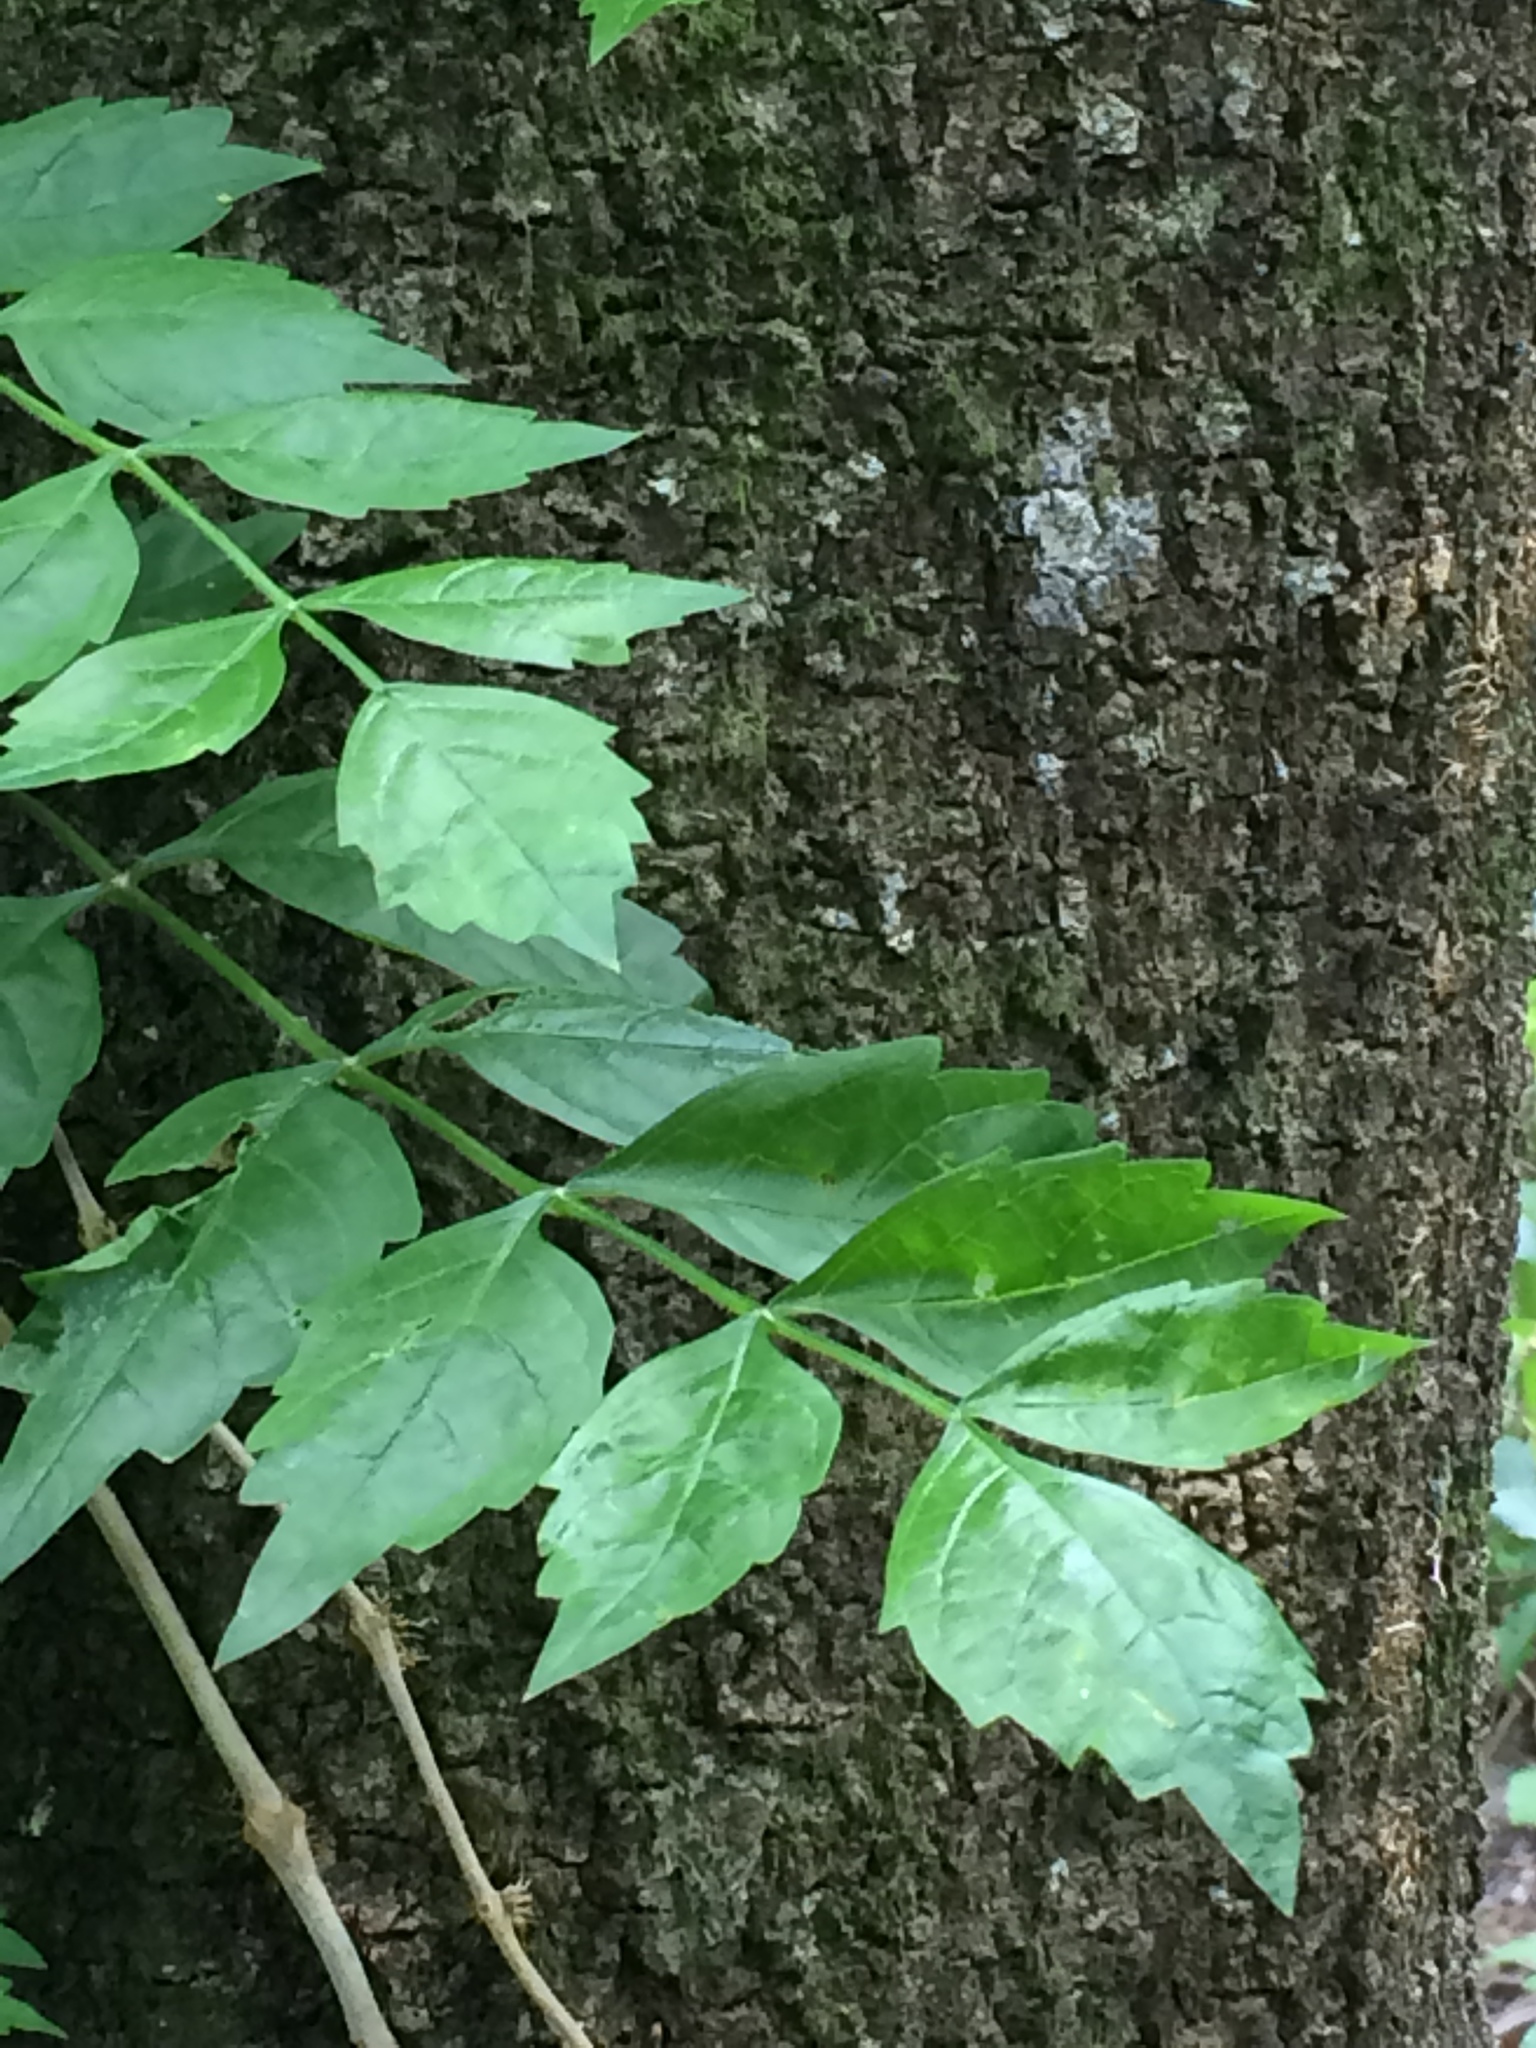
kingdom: Plantae
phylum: Tracheophyta
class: Magnoliopsida
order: Lamiales
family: Bignoniaceae
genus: Campsis
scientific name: Campsis radicans
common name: Trumpet-creeper
